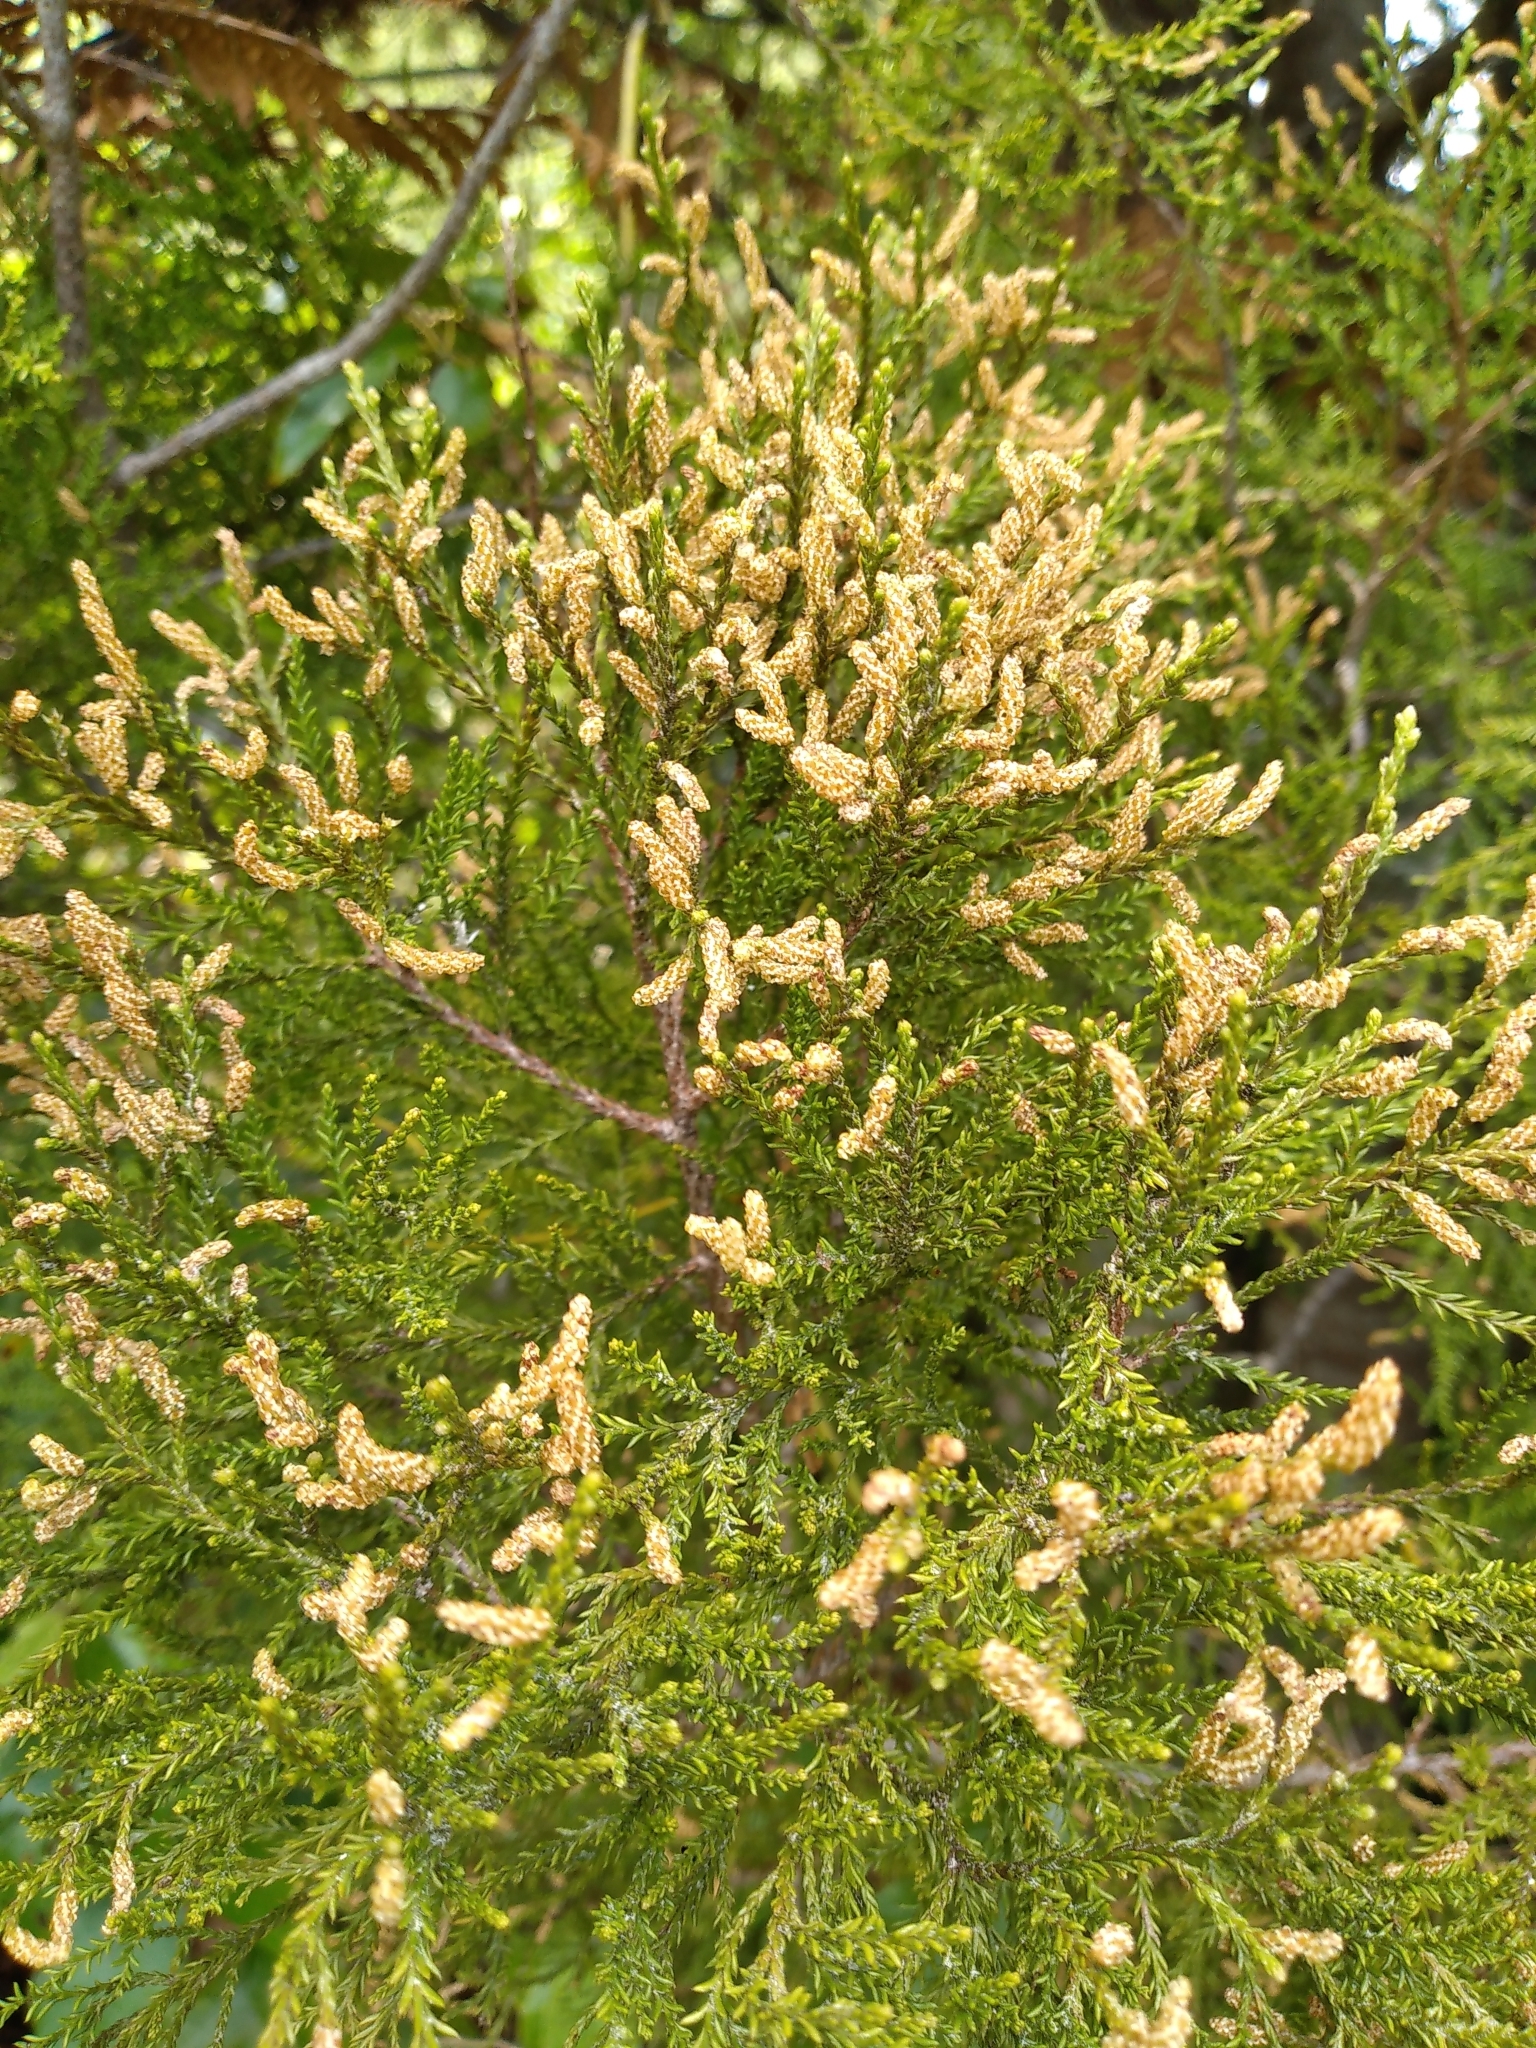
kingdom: Plantae
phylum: Tracheophyta
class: Pinopsida
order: Pinales
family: Podocarpaceae
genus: Dacrycarpus
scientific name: Dacrycarpus dacrydioides
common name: White pine
